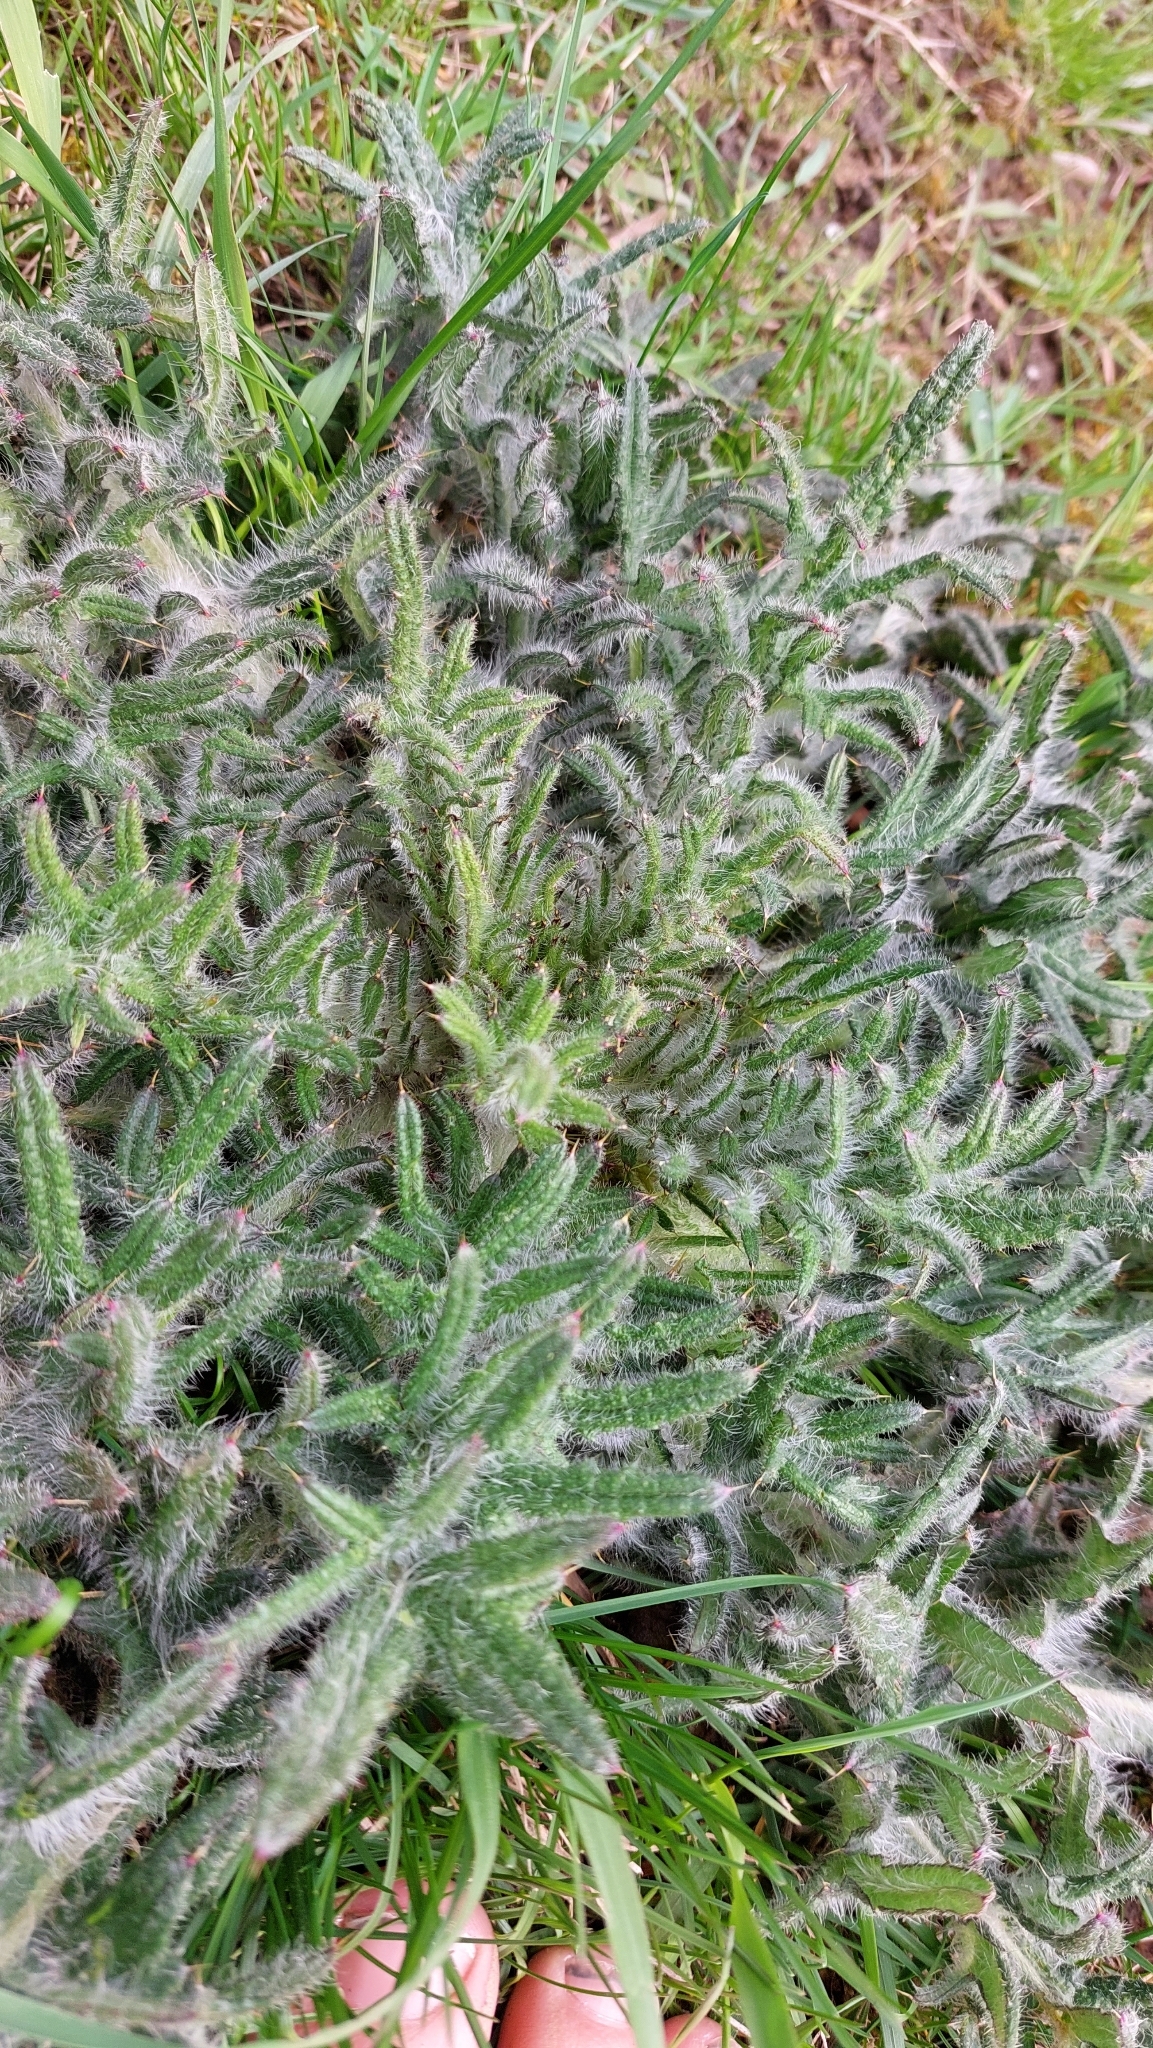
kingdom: Plantae
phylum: Tracheophyta
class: Magnoliopsida
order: Asterales
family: Asteraceae
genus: Cirsium
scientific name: Cirsium vulgare
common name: Bull thistle
